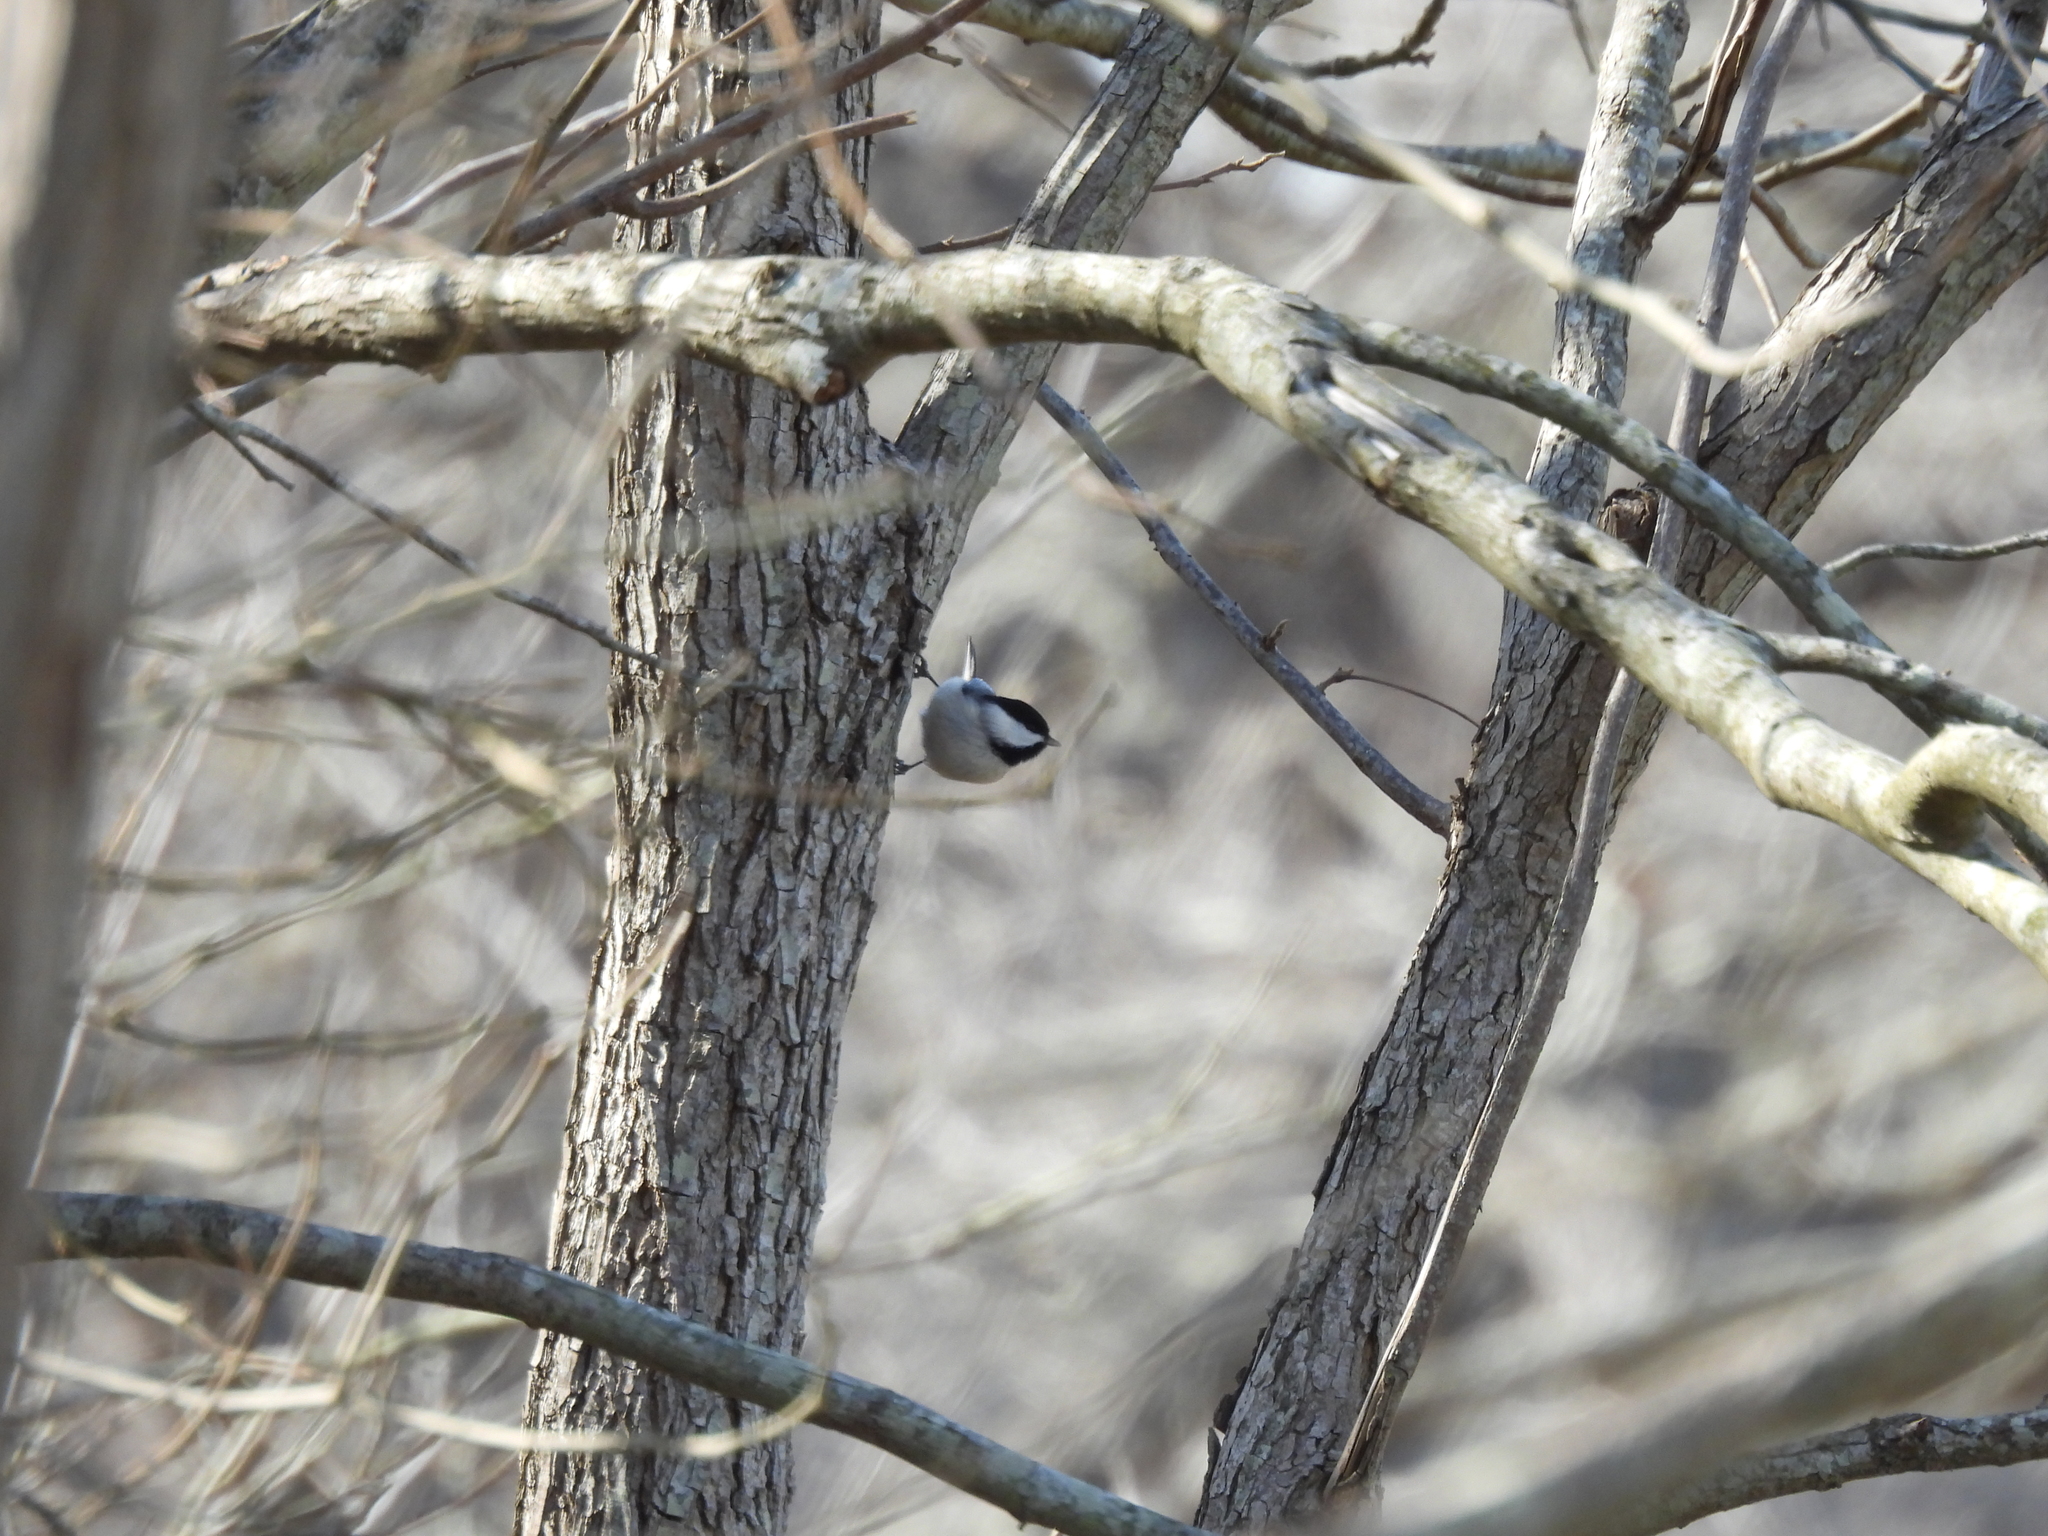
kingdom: Animalia
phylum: Chordata
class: Aves
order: Passeriformes
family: Paridae
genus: Poecile
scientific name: Poecile carolinensis
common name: Carolina chickadee
